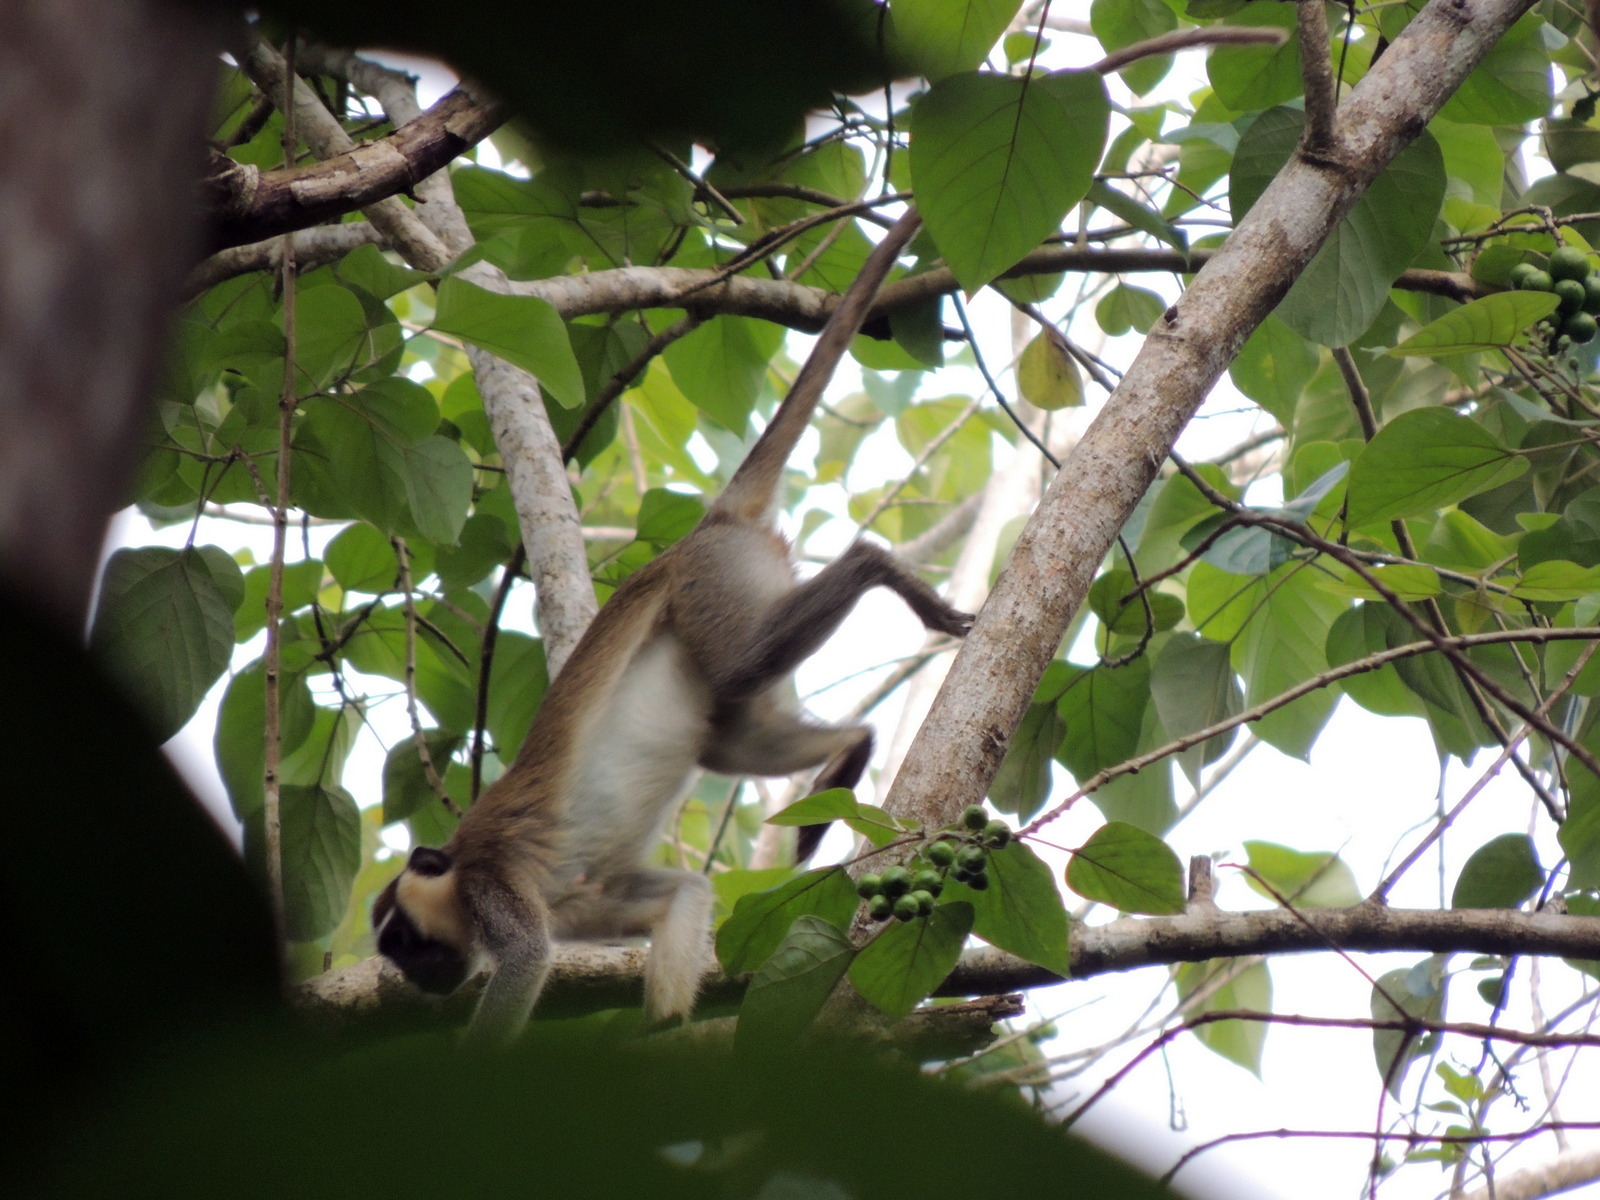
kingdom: Animalia
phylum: Chordata
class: Mammalia
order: Primates
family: Cercopithecidae
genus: Chlorocebus
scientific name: Chlorocebus tantalus
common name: Tantalus monkey
